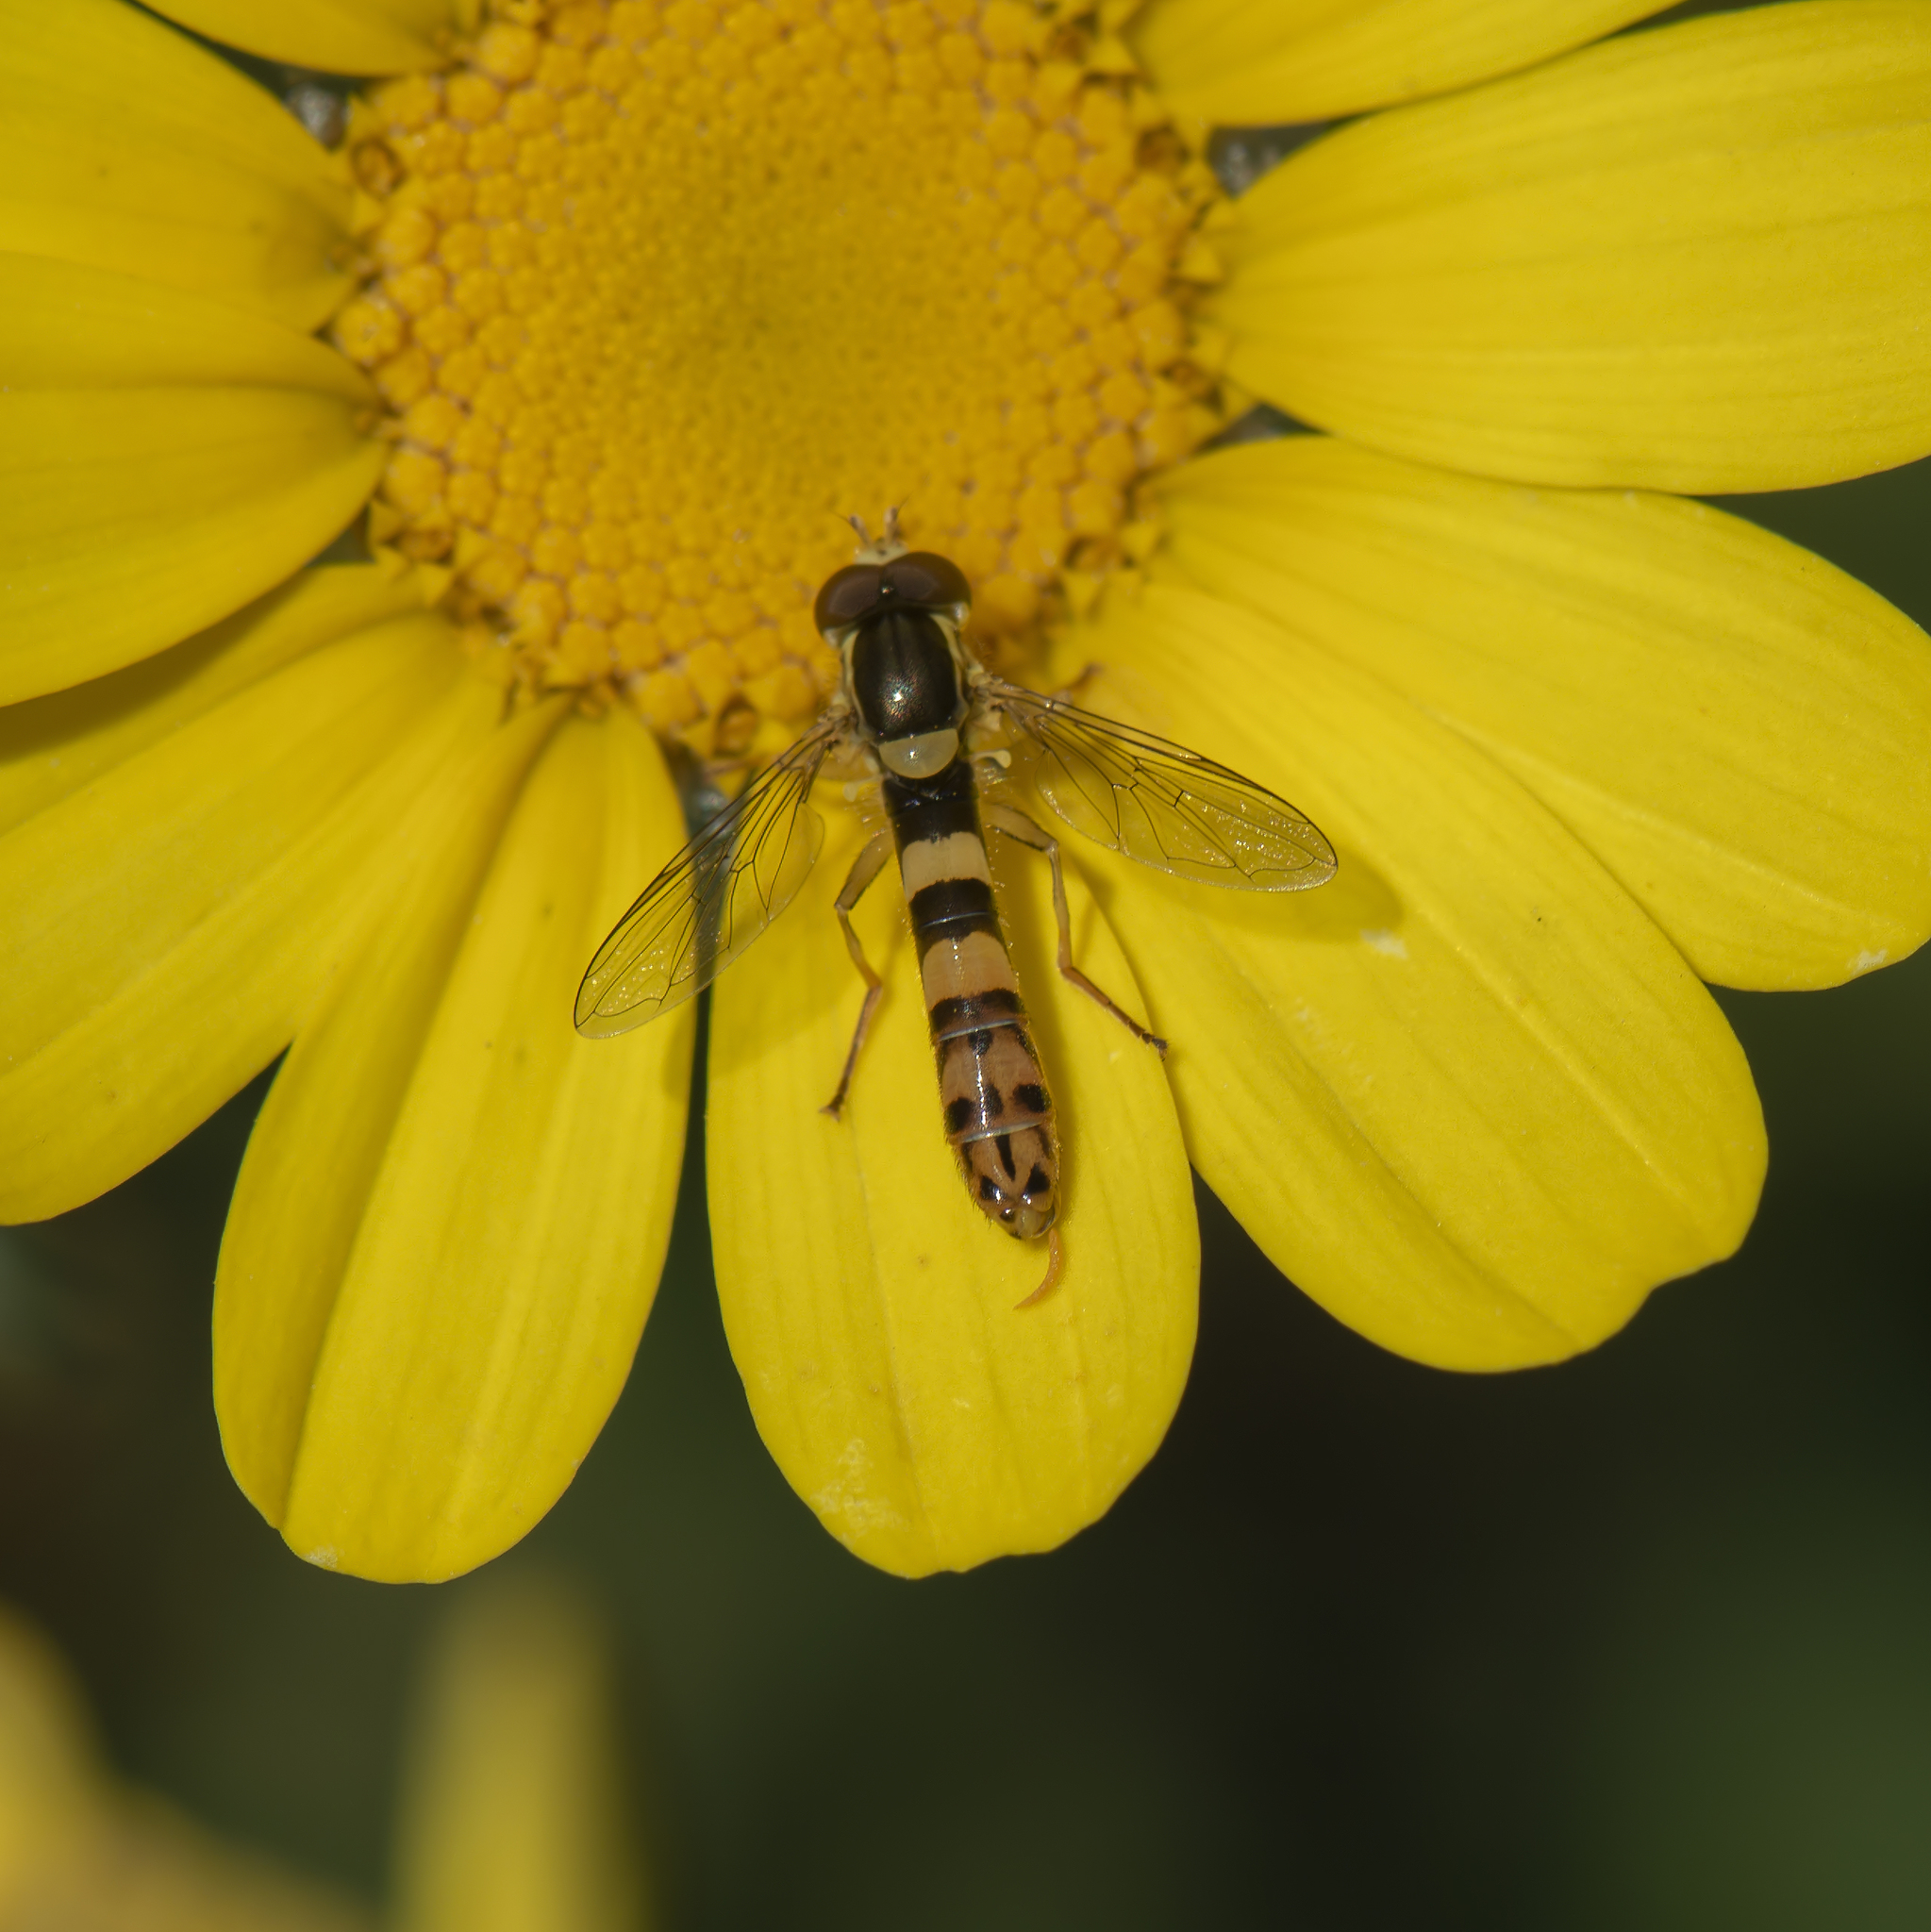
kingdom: Animalia
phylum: Arthropoda
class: Insecta
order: Diptera
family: Syrphidae
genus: Sphaerophoria
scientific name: Sphaerophoria scripta
